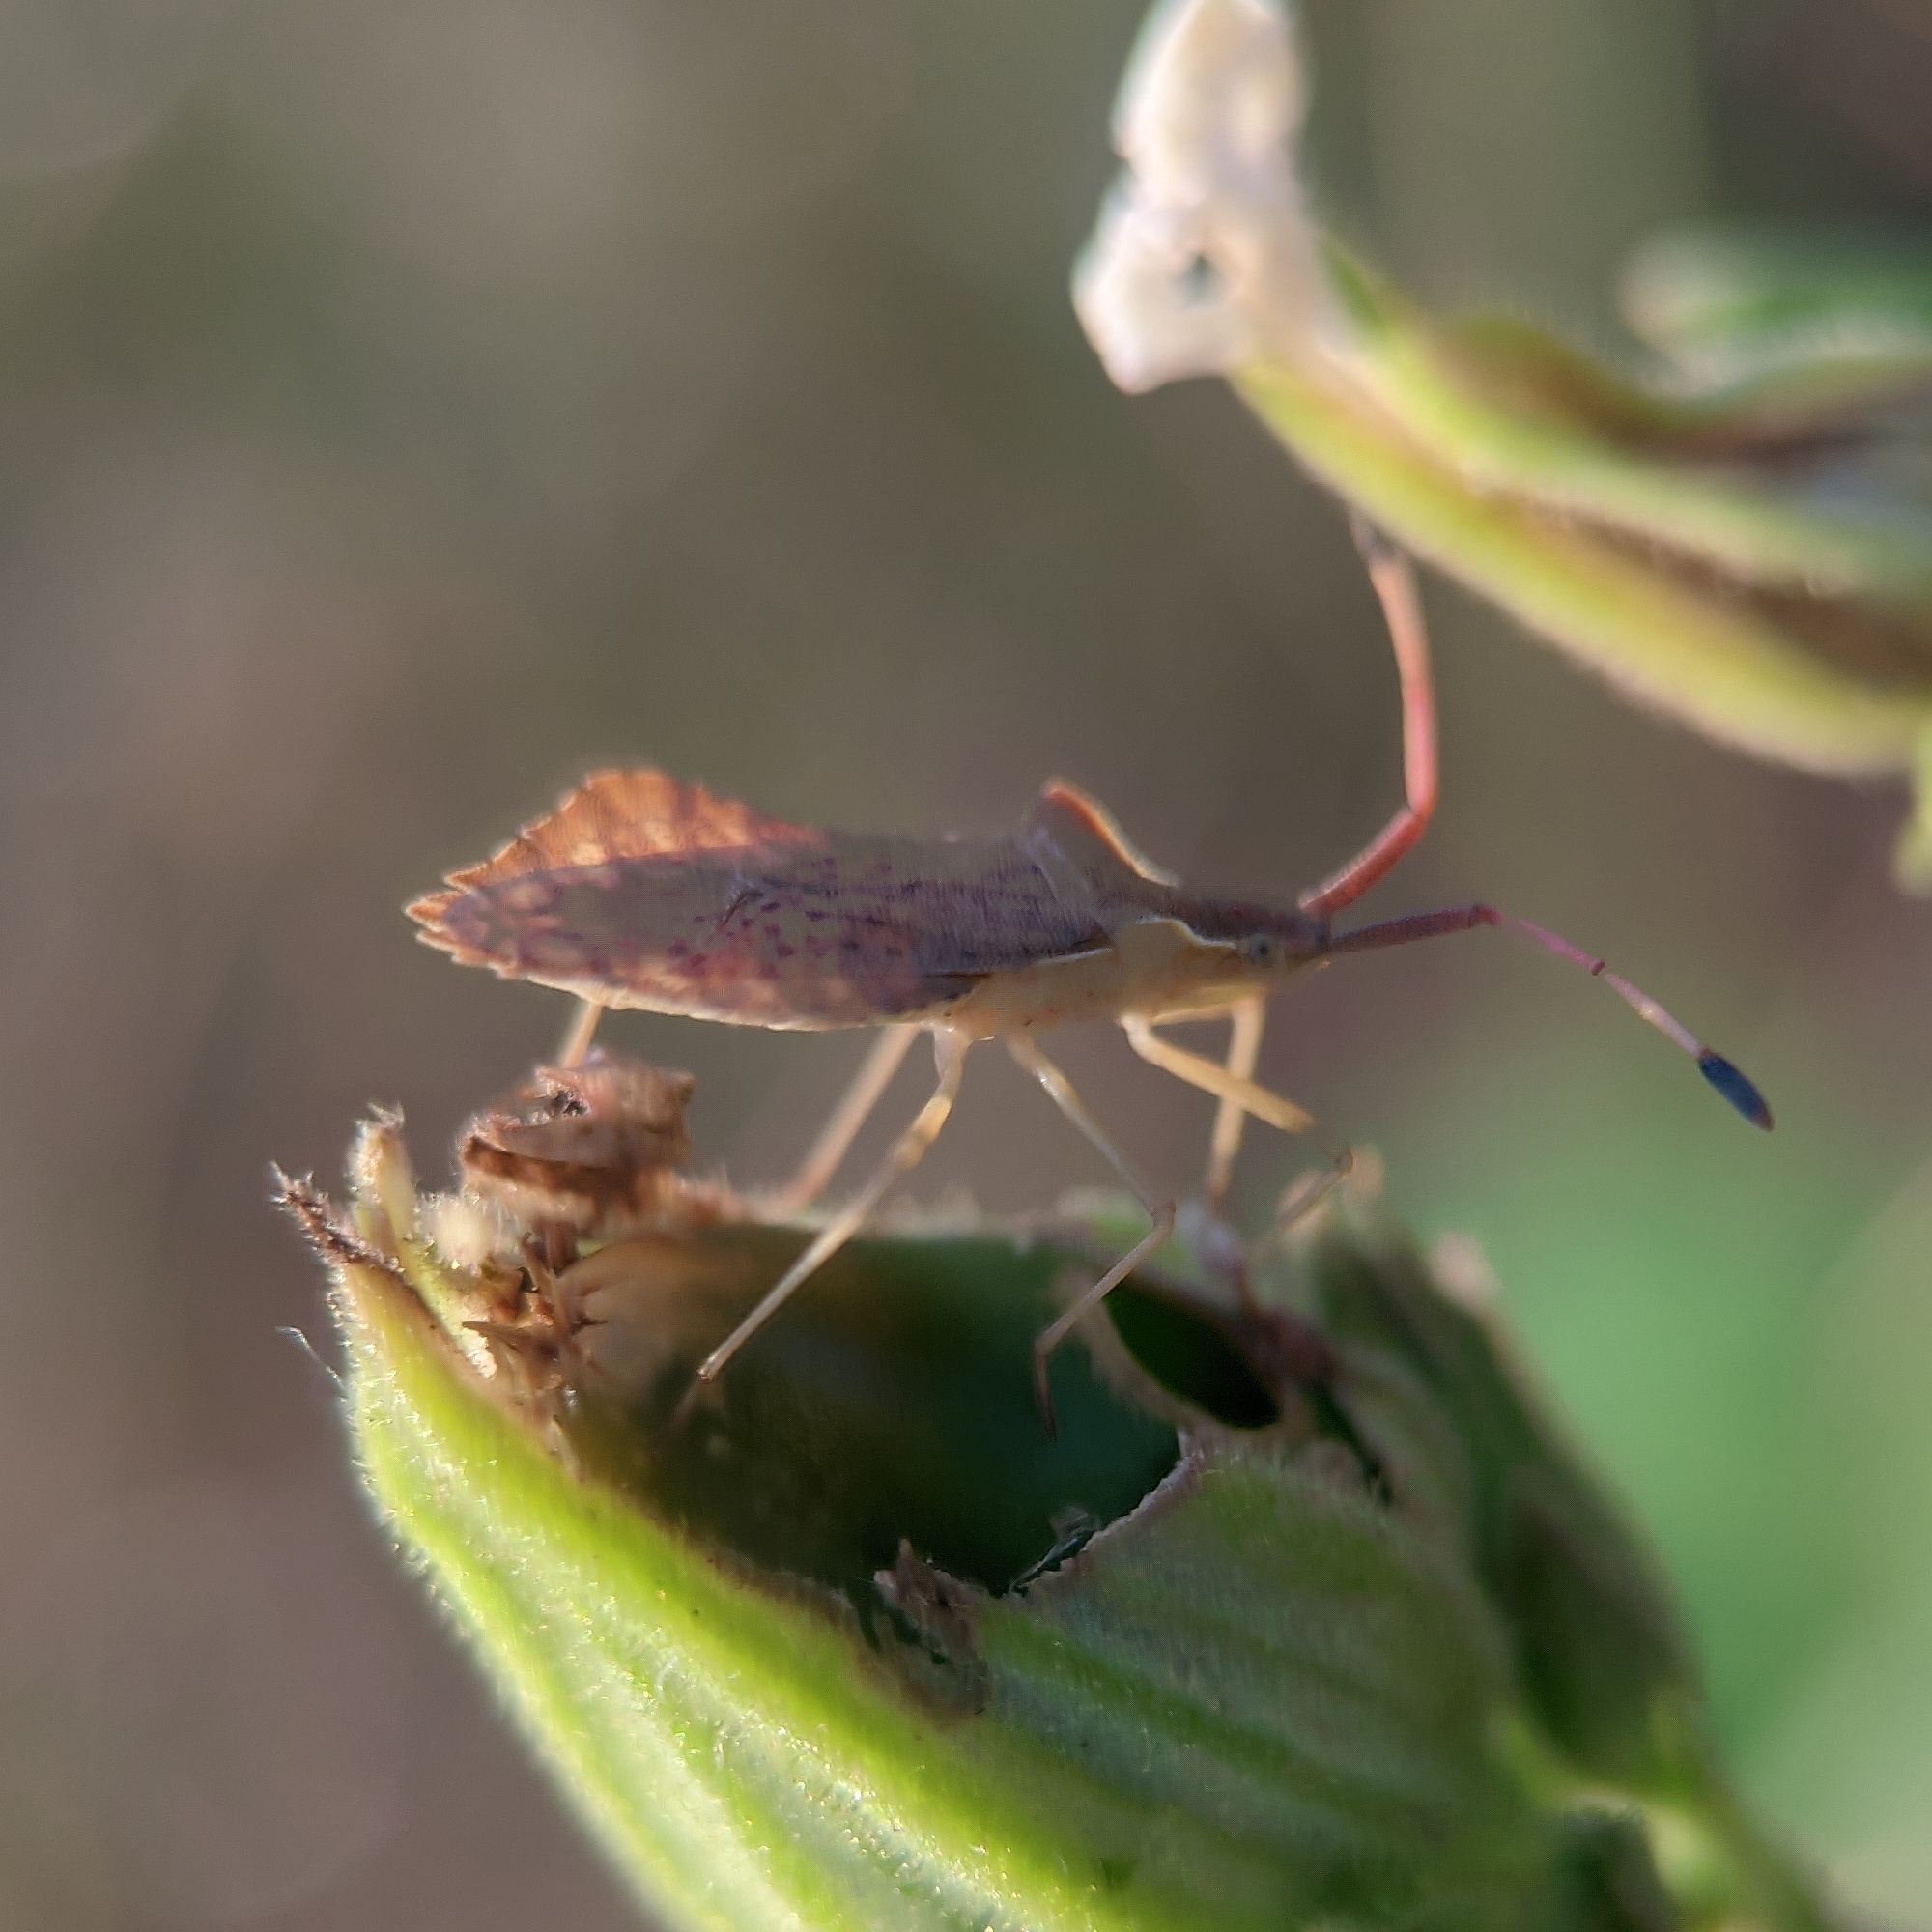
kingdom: Animalia
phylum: Arthropoda
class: Insecta
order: Hemiptera
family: Coreidae
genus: Syromastus
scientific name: Syromastus rhombeus
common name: Rhombic leatherbug
